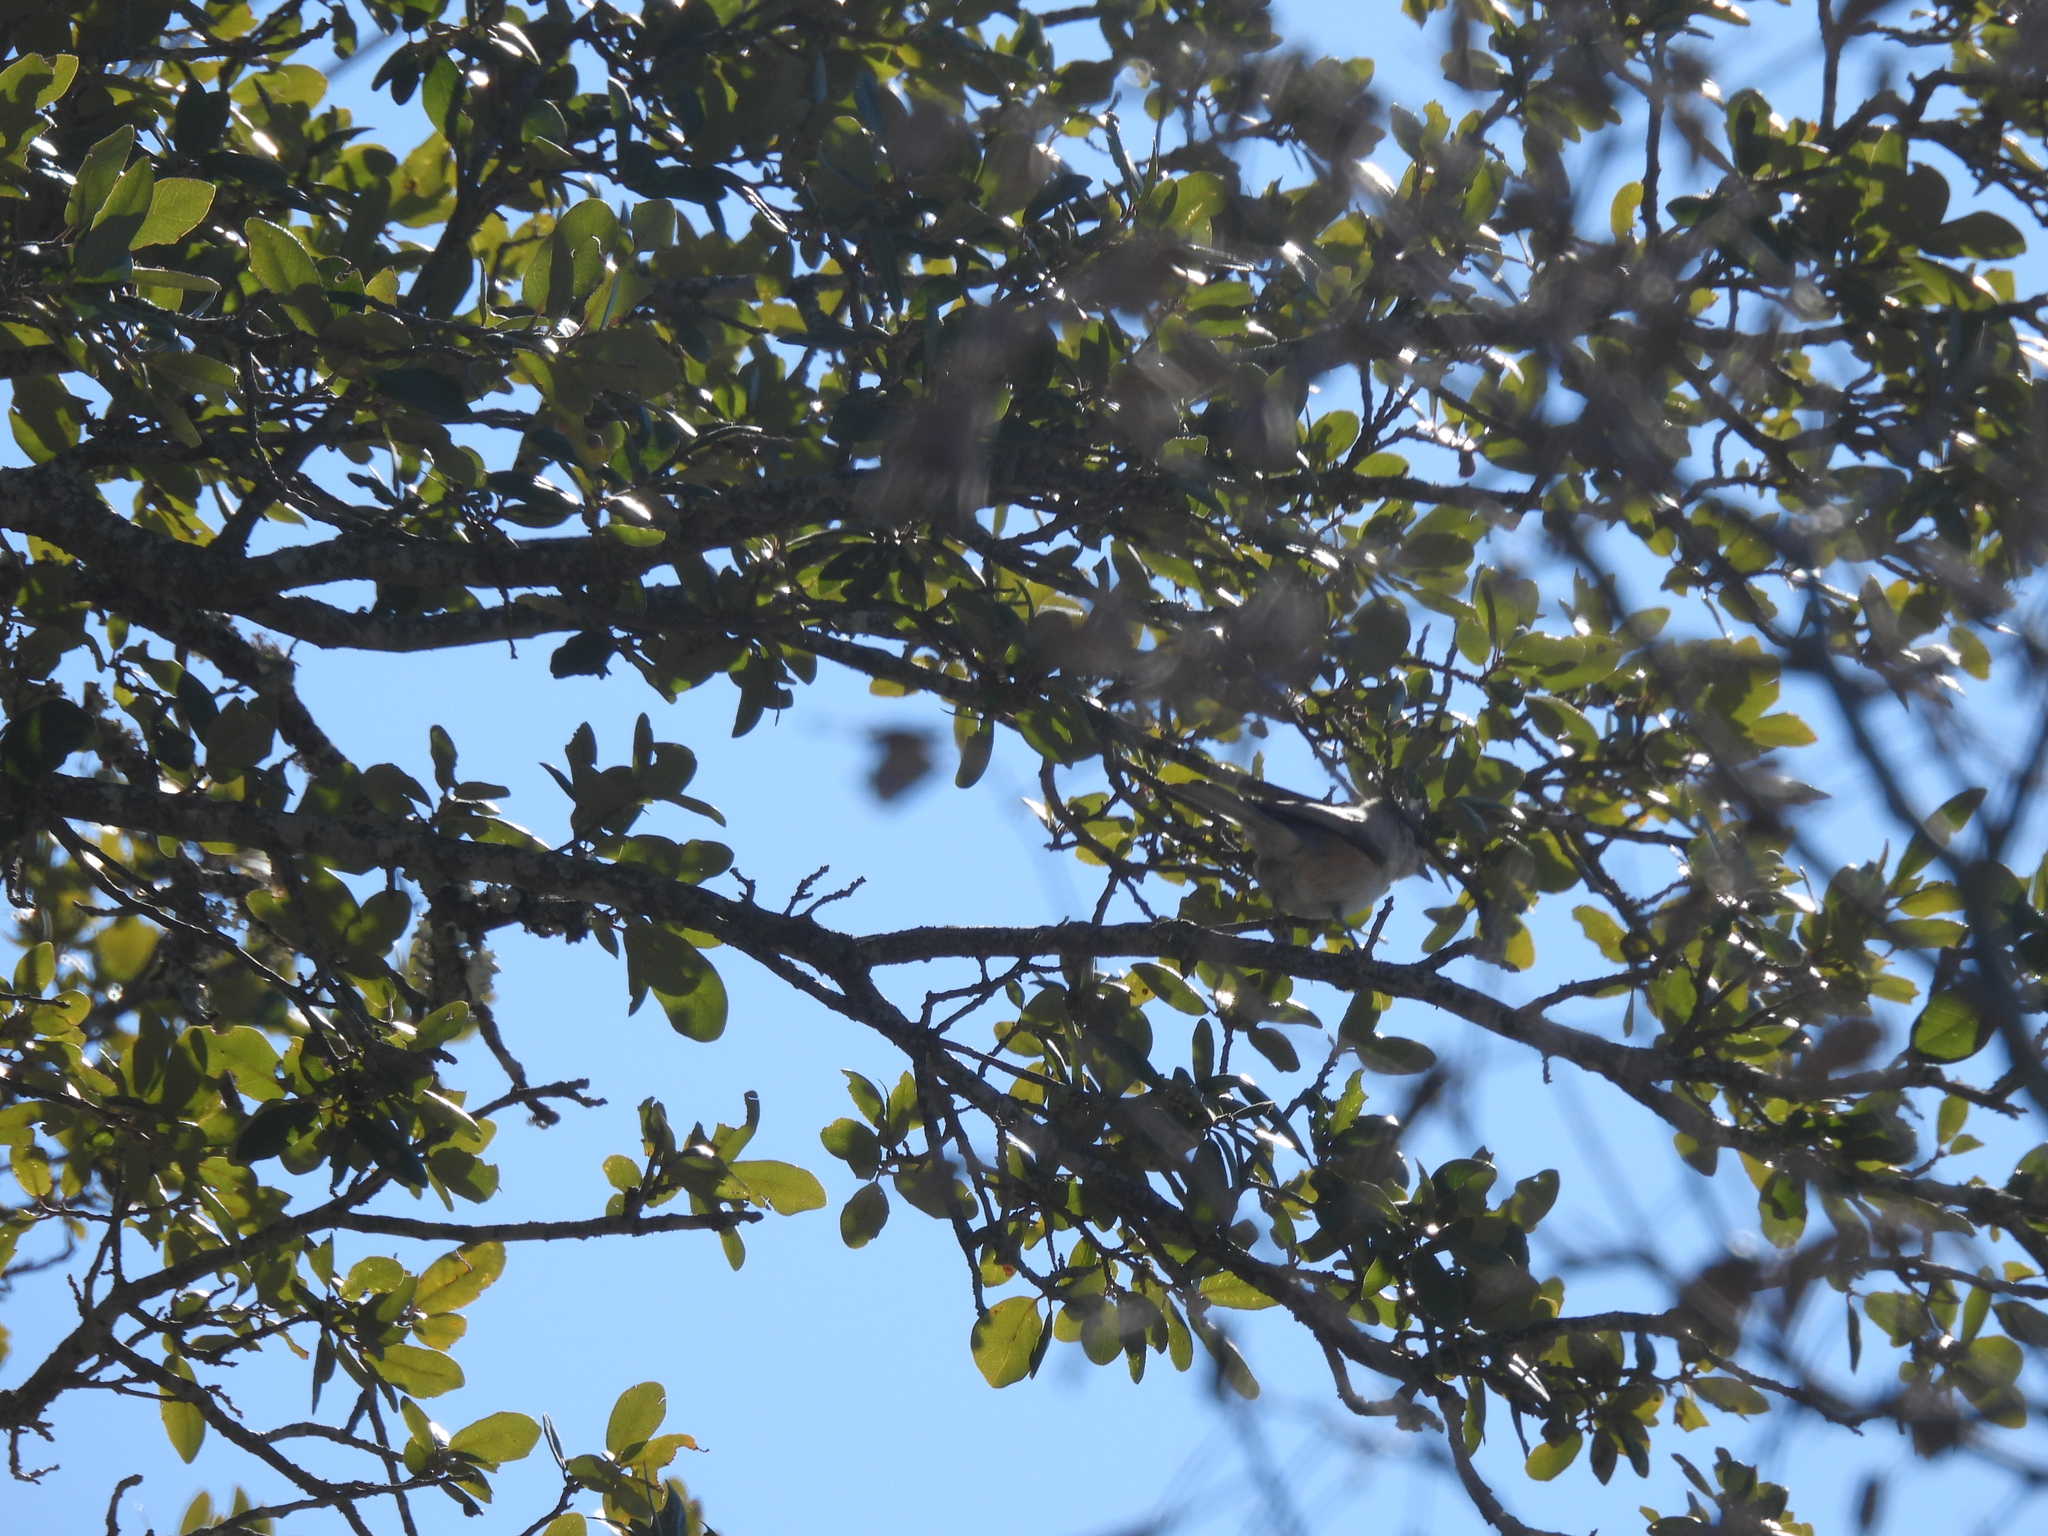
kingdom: Animalia
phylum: Chordata
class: Aves
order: Passeriformes
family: Paridae
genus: Baeolophus
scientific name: Baeolophus atricristatus
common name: Black-crested titmouse
